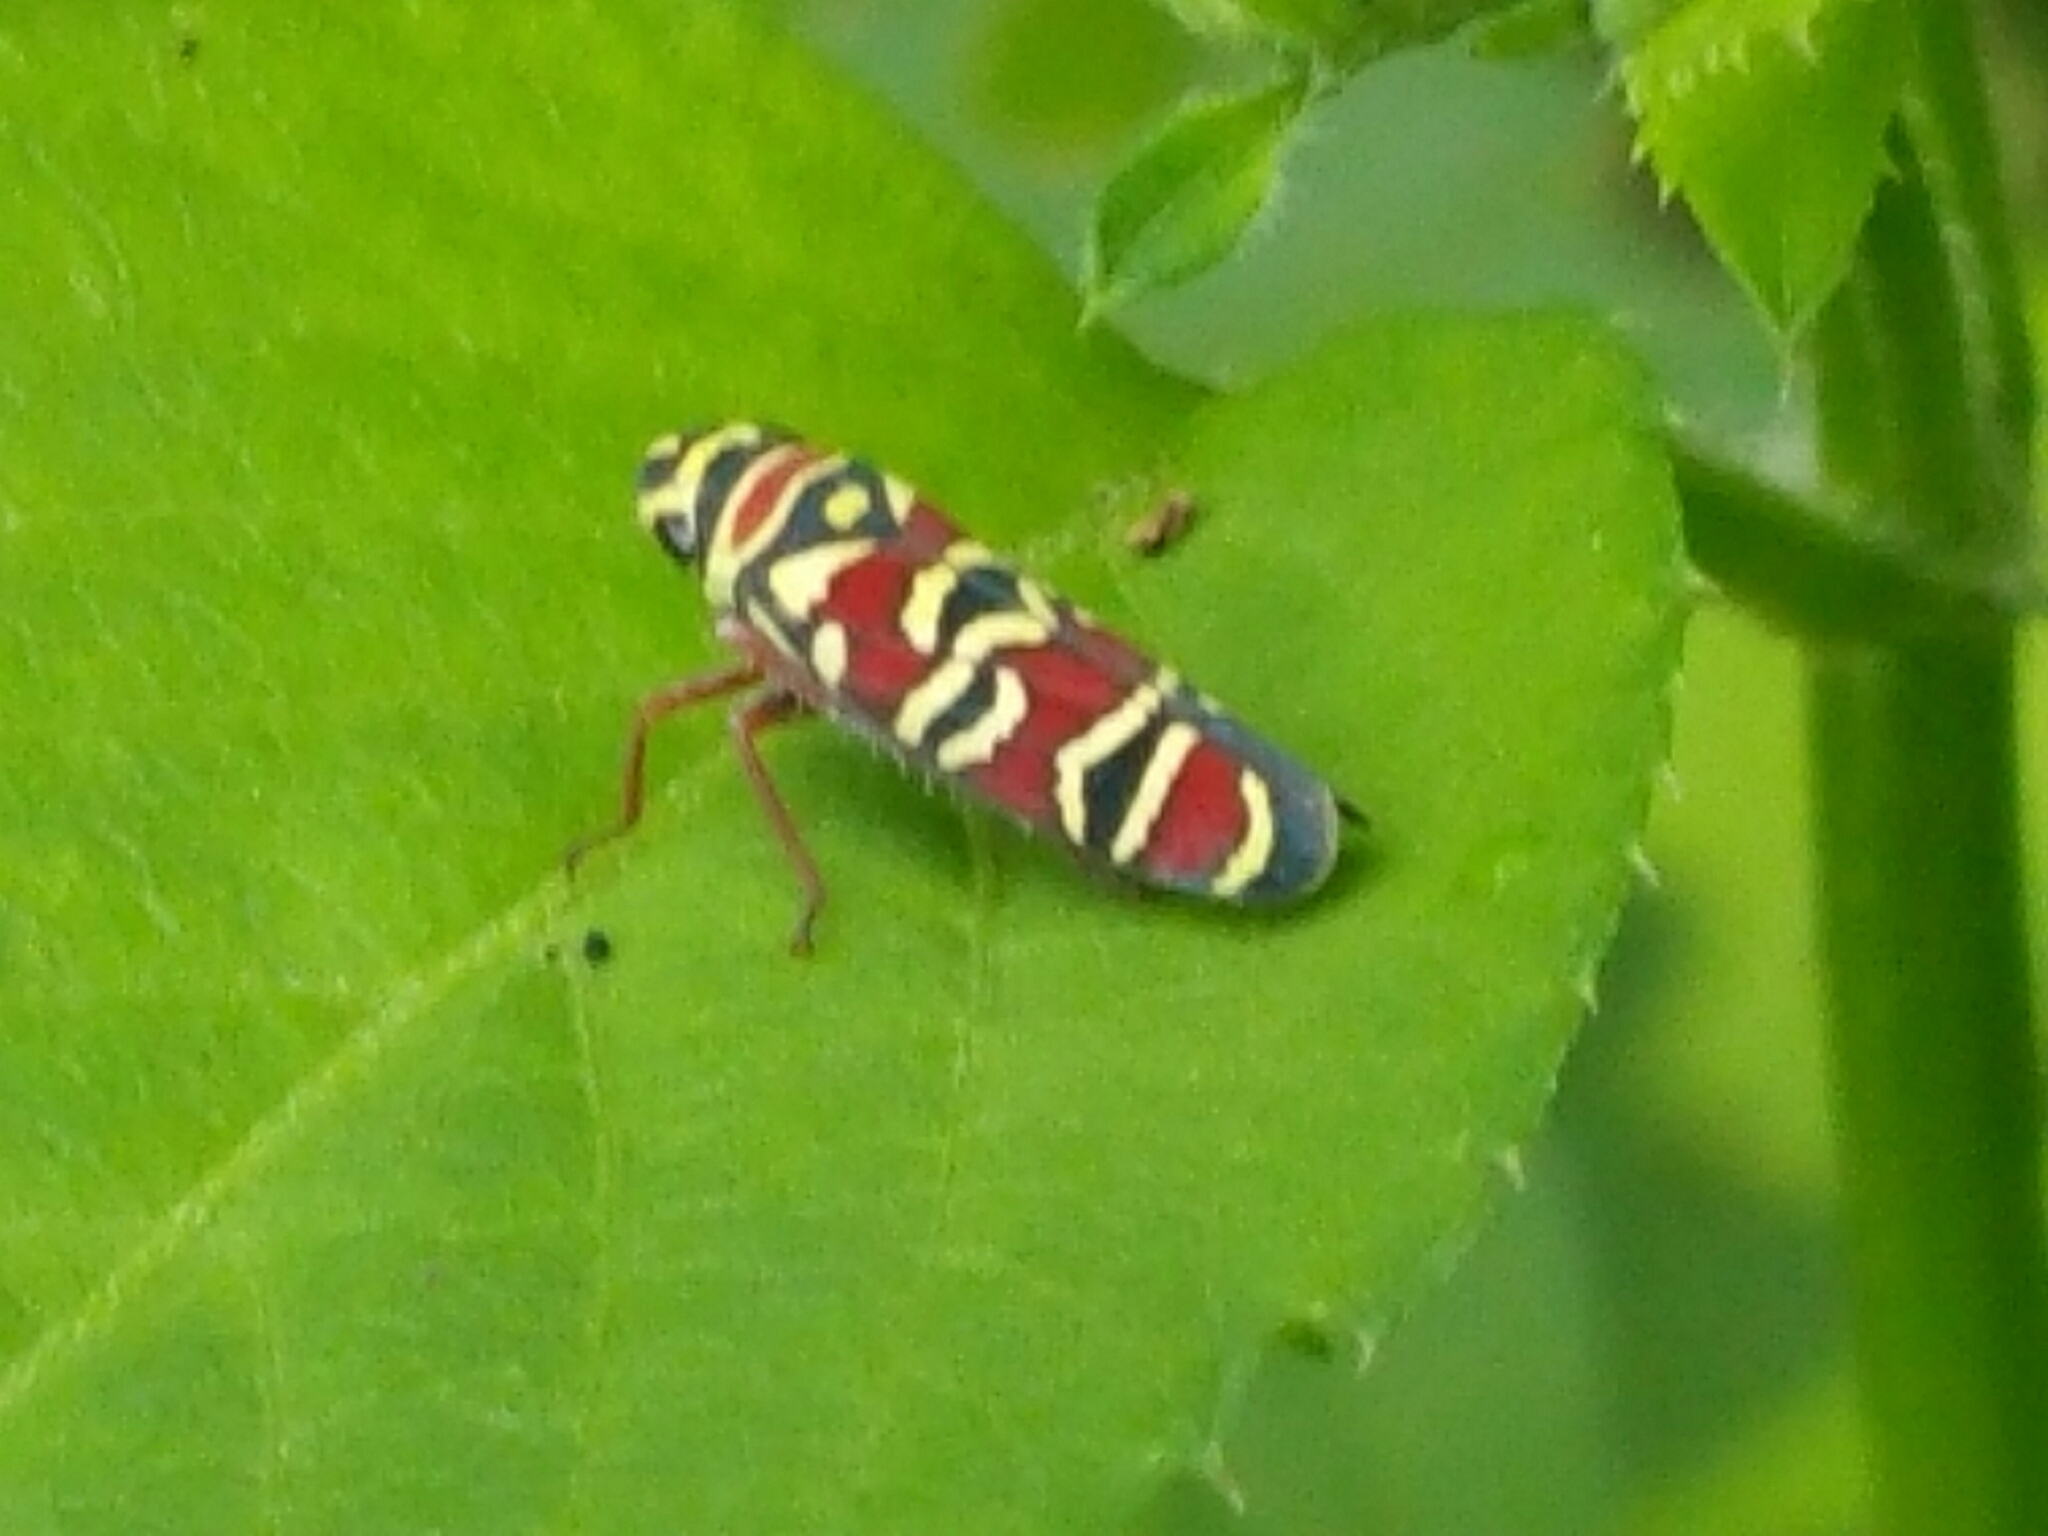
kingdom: Animalia
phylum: Arthropoda
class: Insecta
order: Hemiptera
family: Cicadellidae
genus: Agrosoma
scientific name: Agrosoma placetis
